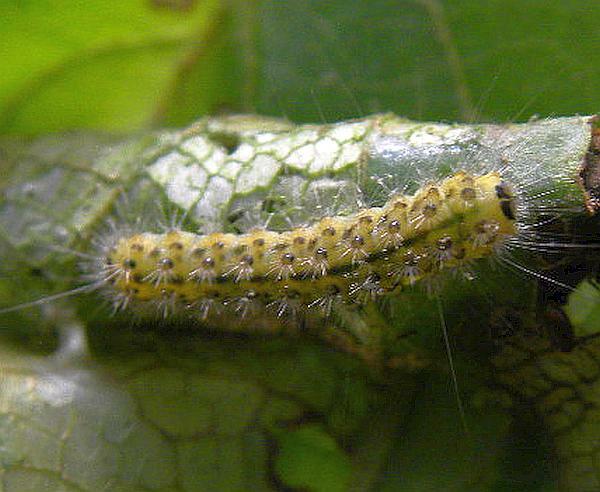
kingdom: Animalia
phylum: Arthropoda
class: Insecta
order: Lepidoptera
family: Nolidae
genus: Nola
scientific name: Nola triquetrana
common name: Three-spotted nola moth
